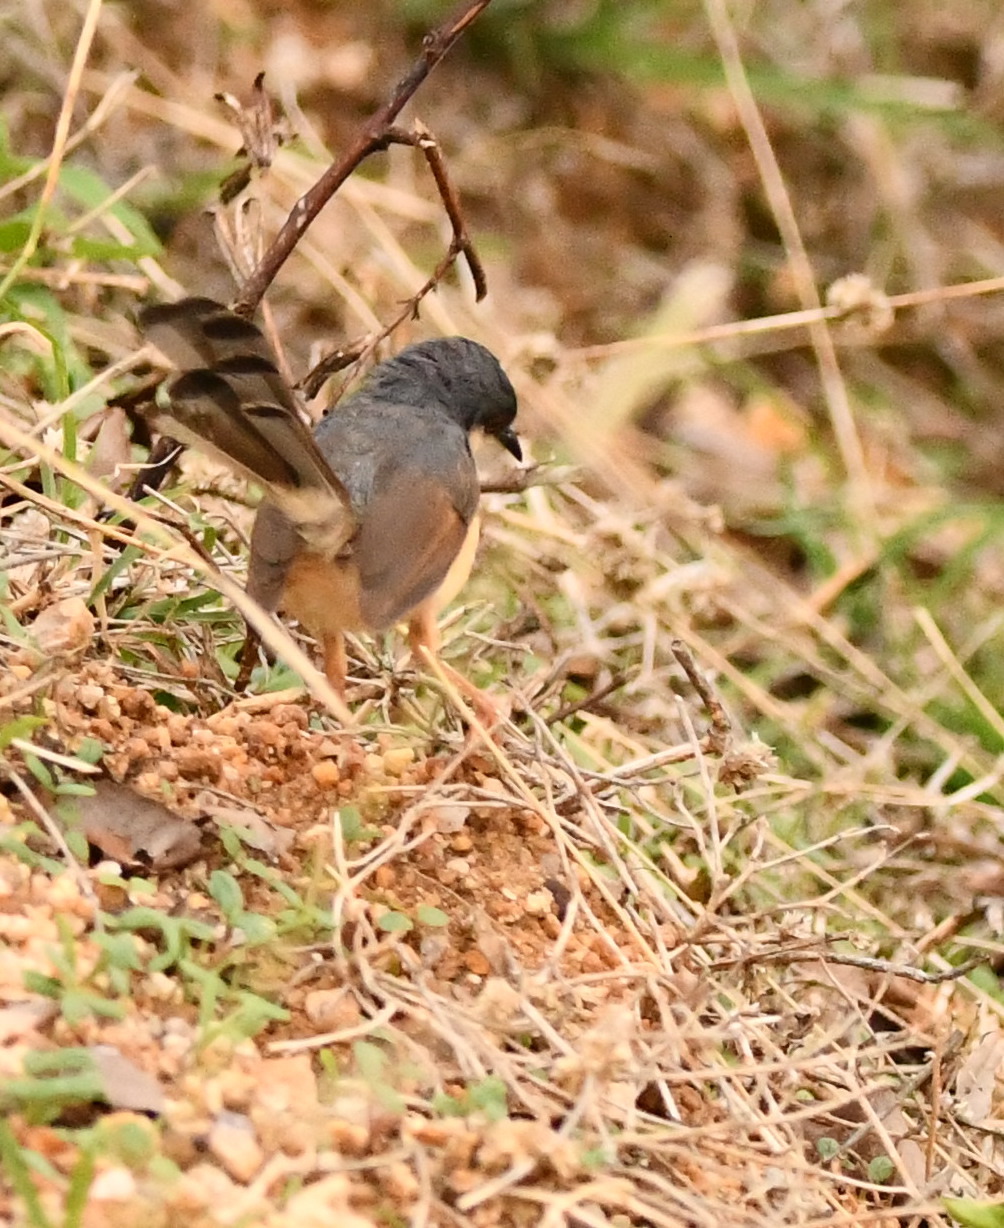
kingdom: Animalia
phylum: Chordata
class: Aves
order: Passeriformes
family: Cisticolidae
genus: Prinia
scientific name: Prinia socialis
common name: Ashy prinia
